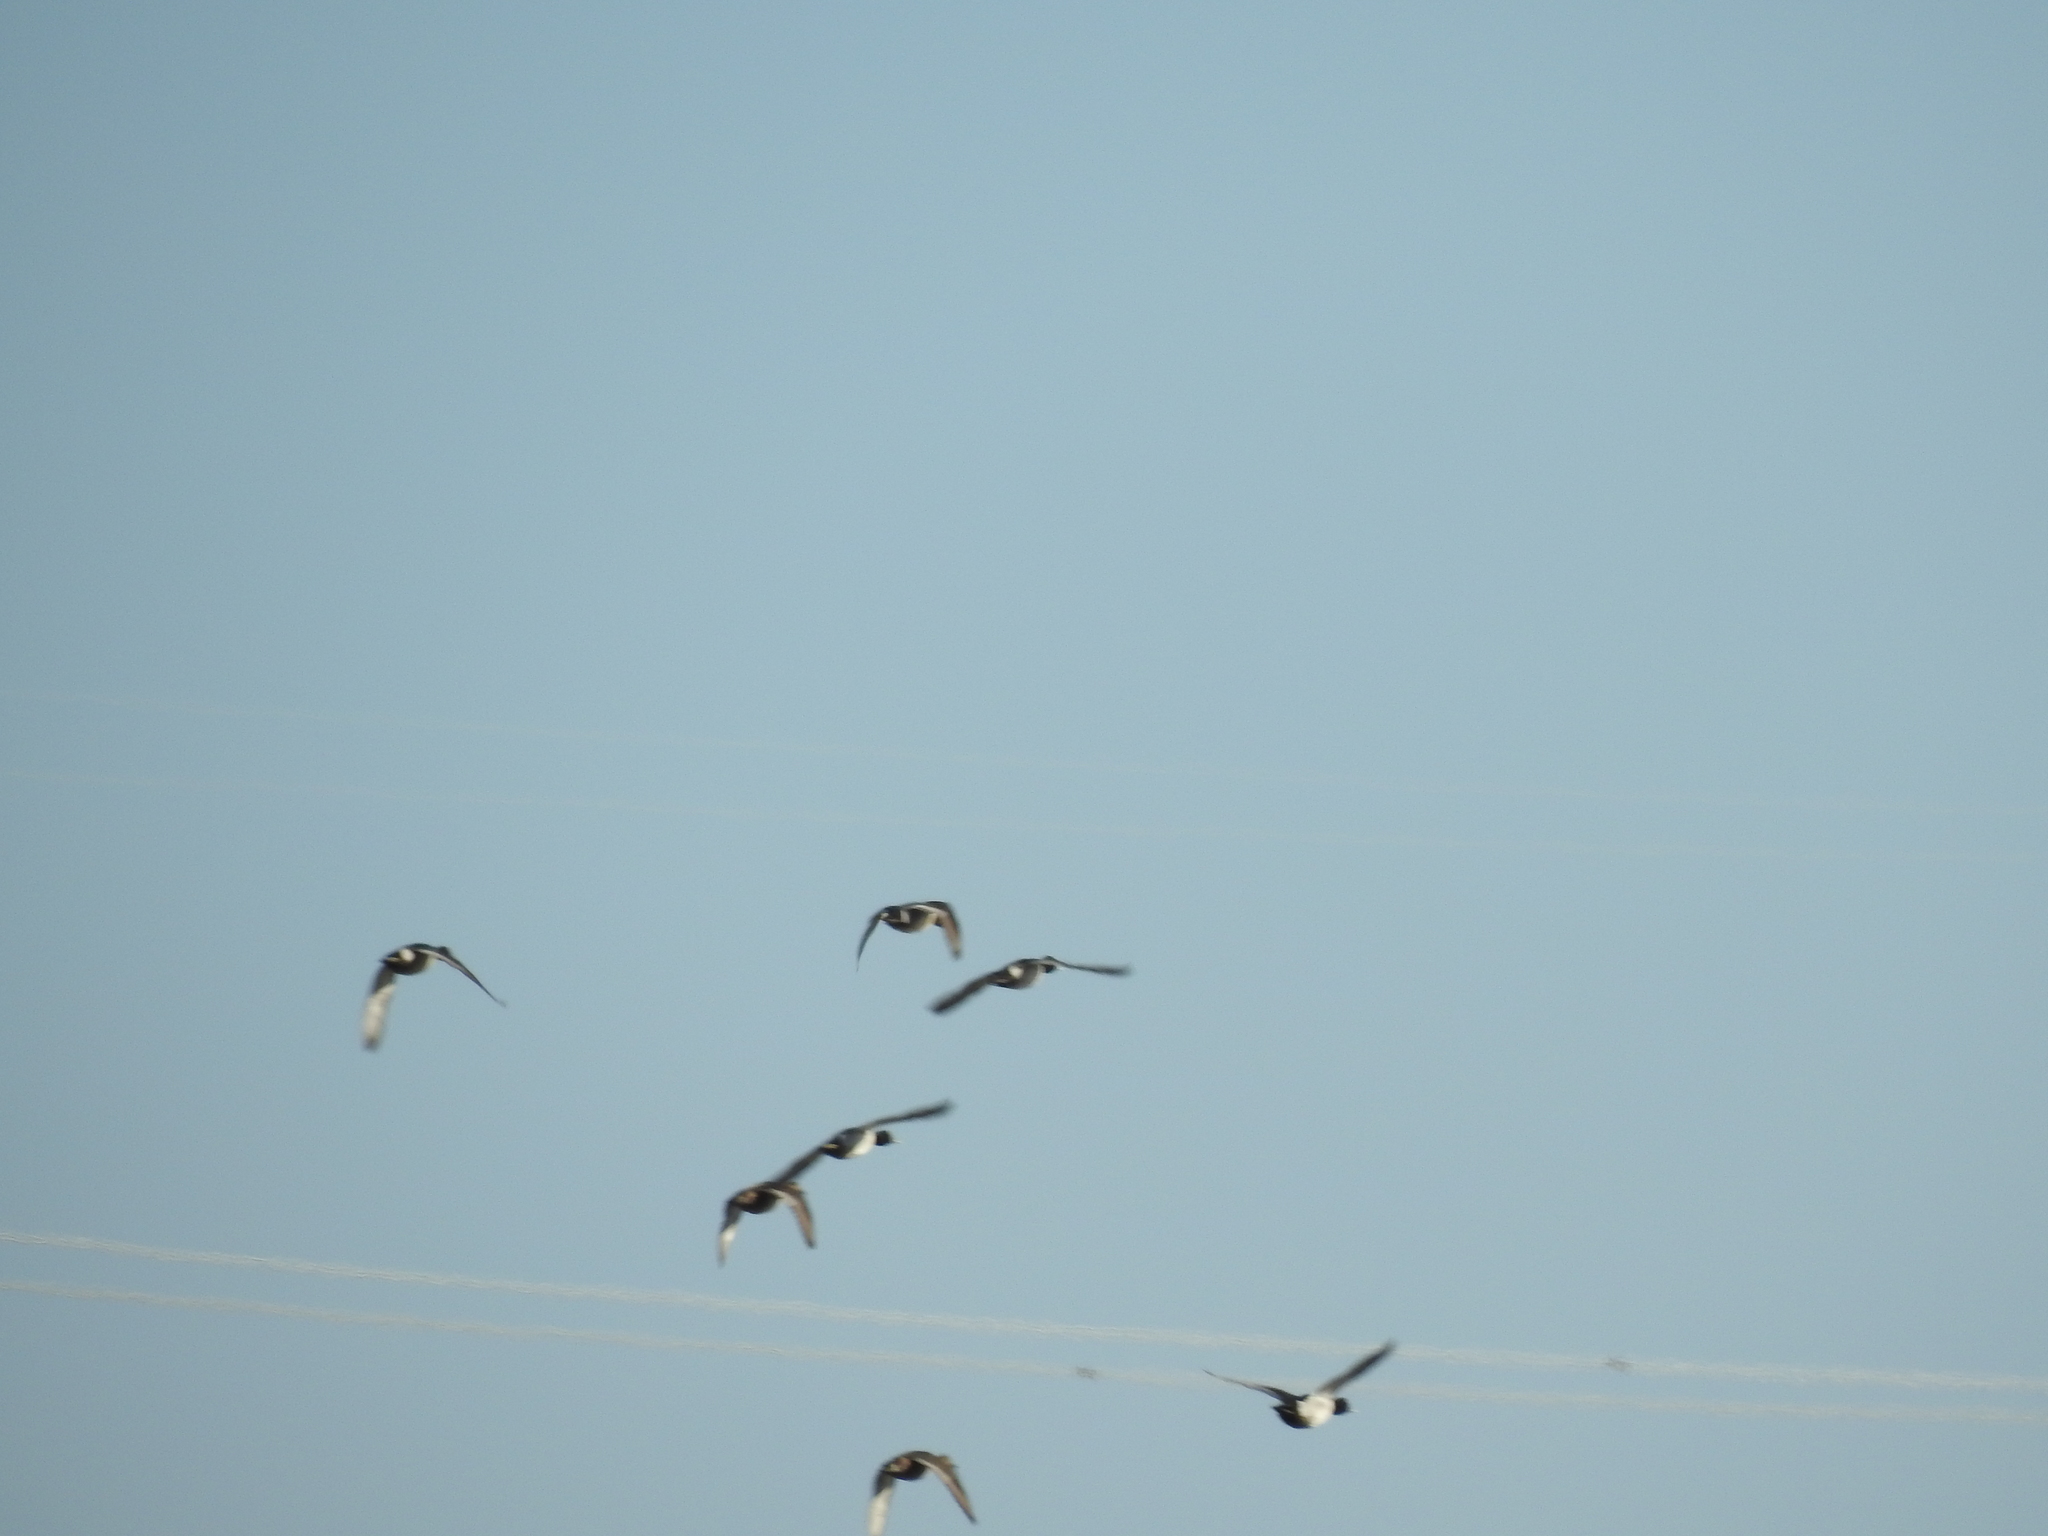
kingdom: Animalia
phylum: Chordata
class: Aves
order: Anseriformes
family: Anatidae
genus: Anas
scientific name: Anas acuta
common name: Northern pintail
